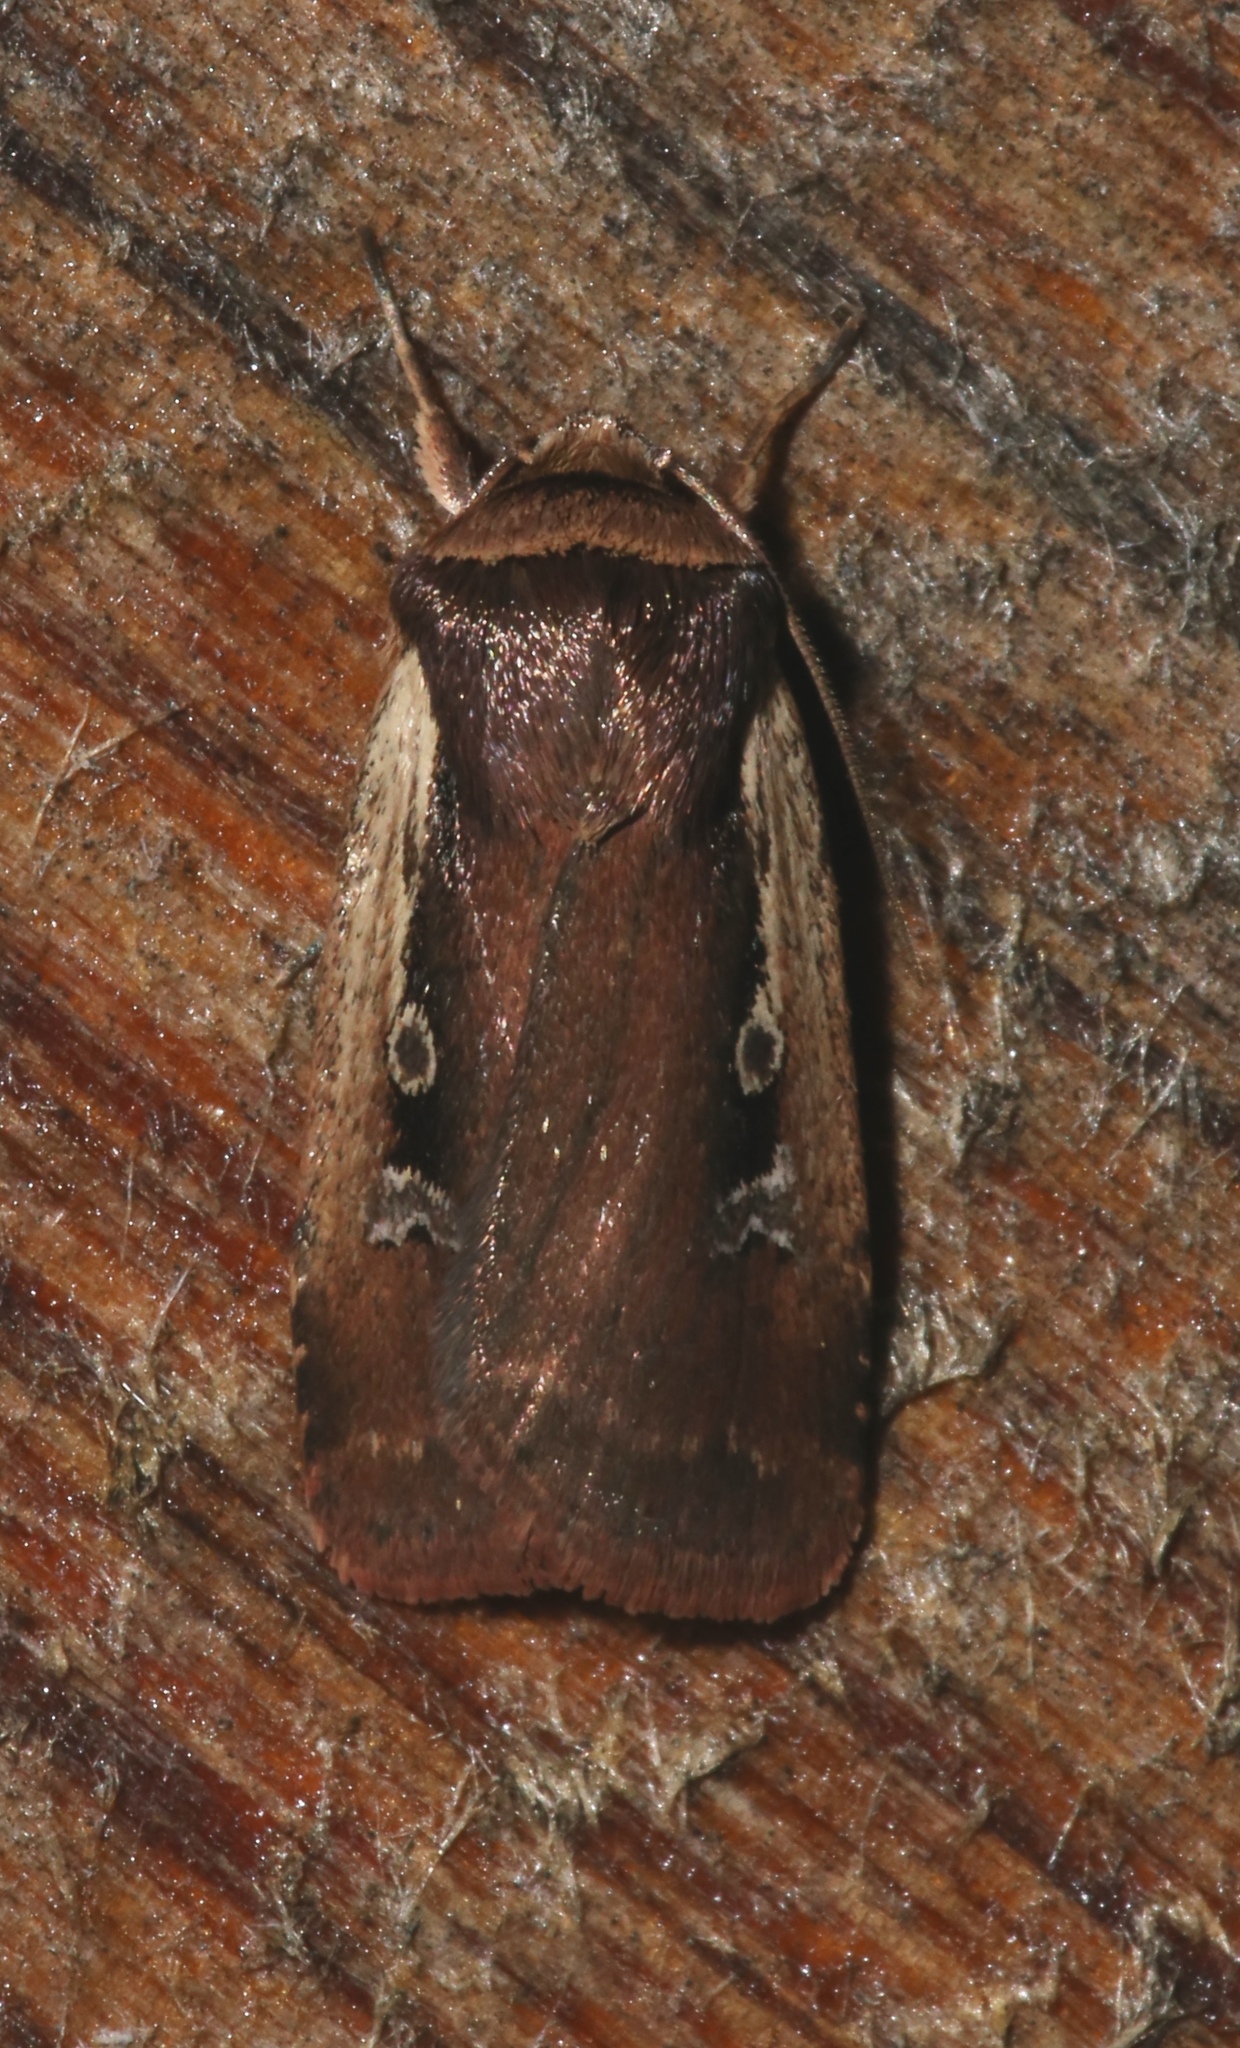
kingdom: Animalia
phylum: Arthropoda
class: Insecta
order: Lepidoptera
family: Noctuidae
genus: Ochropleura
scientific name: Ochropleura implecta
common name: Flame-shouldered dart
